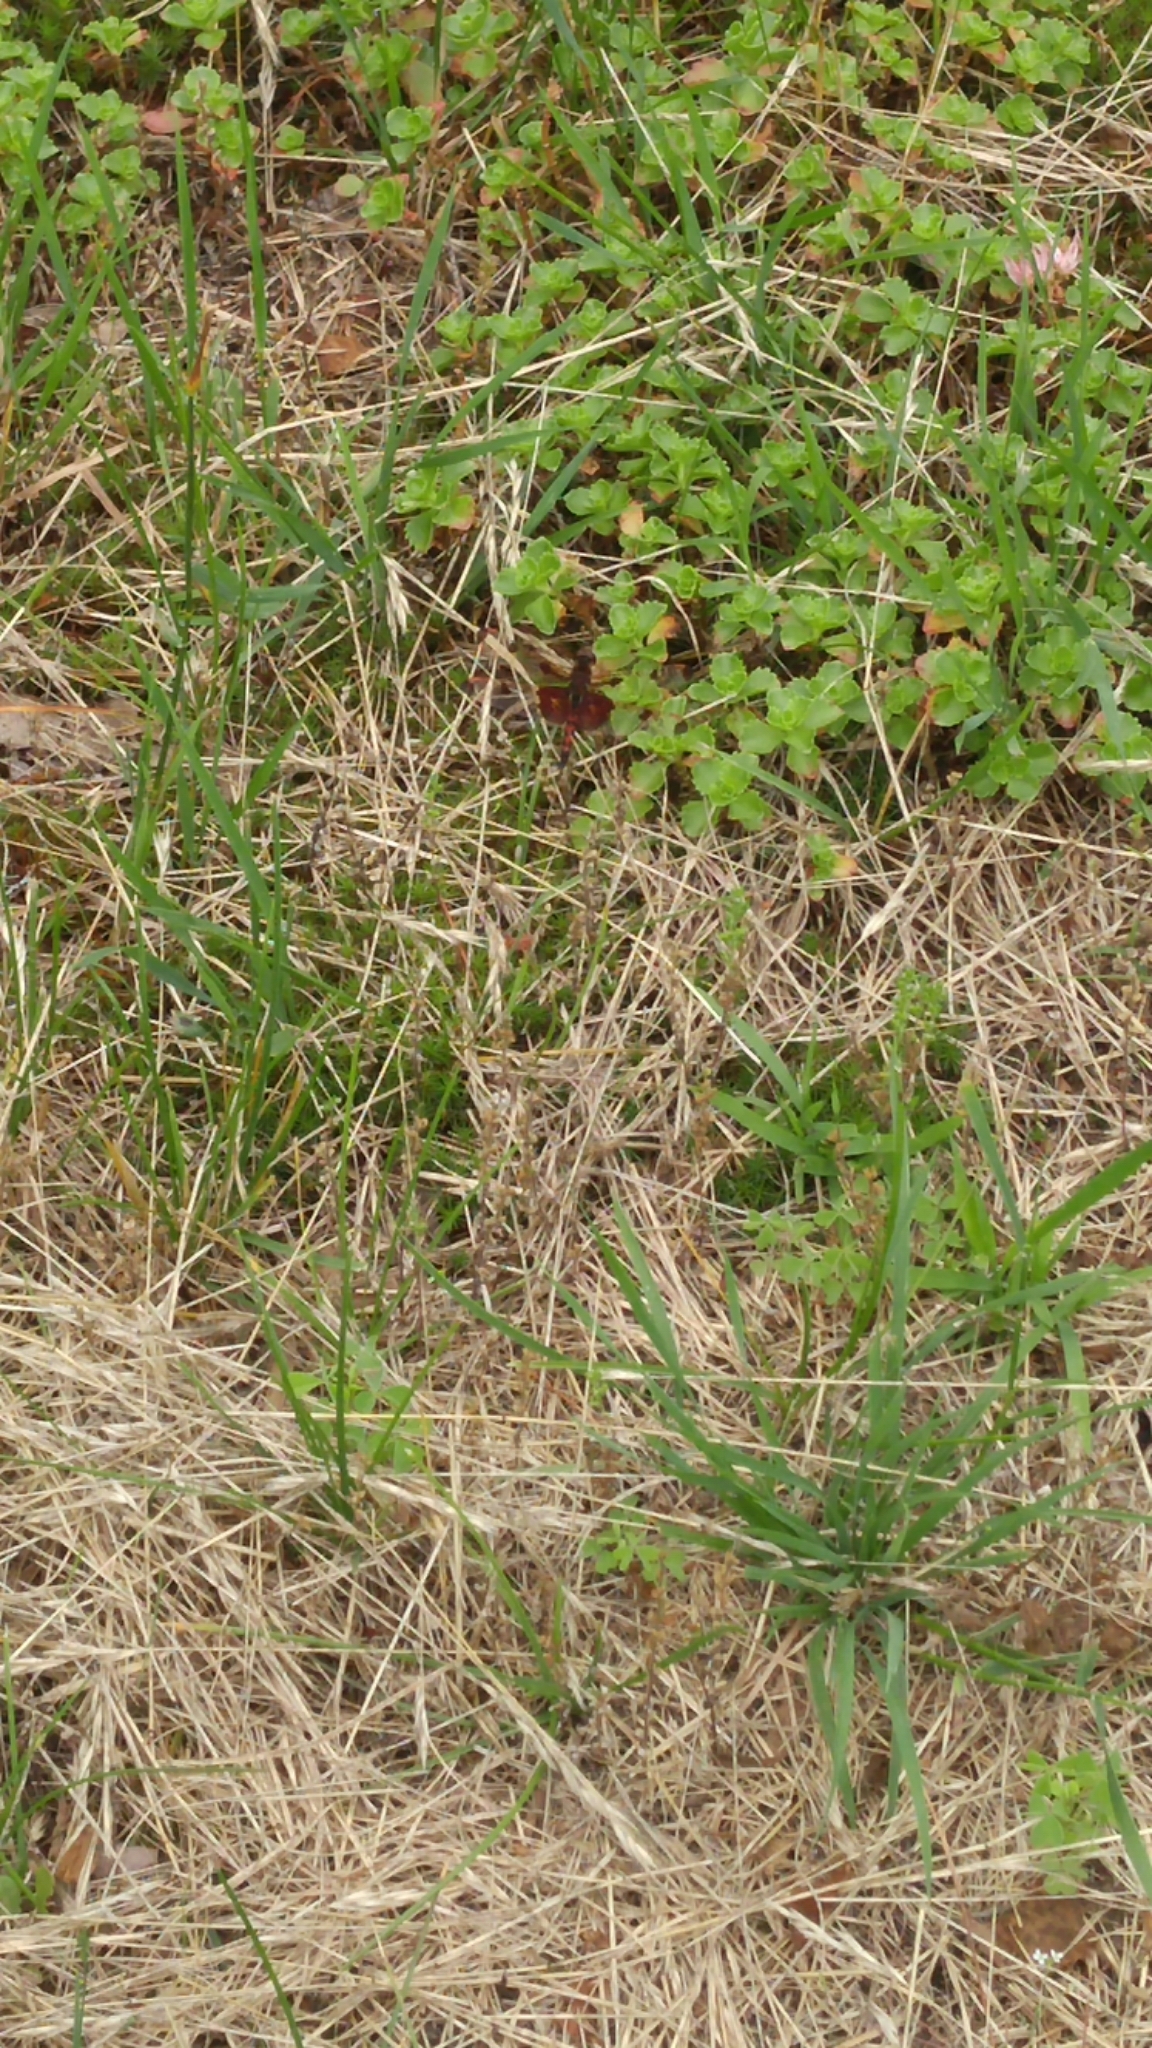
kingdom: Animalia
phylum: Arthropoda
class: Insecta
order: Odonata
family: Libellulidae
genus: Celithemis
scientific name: Celithemis elisa
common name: Calico pennant
